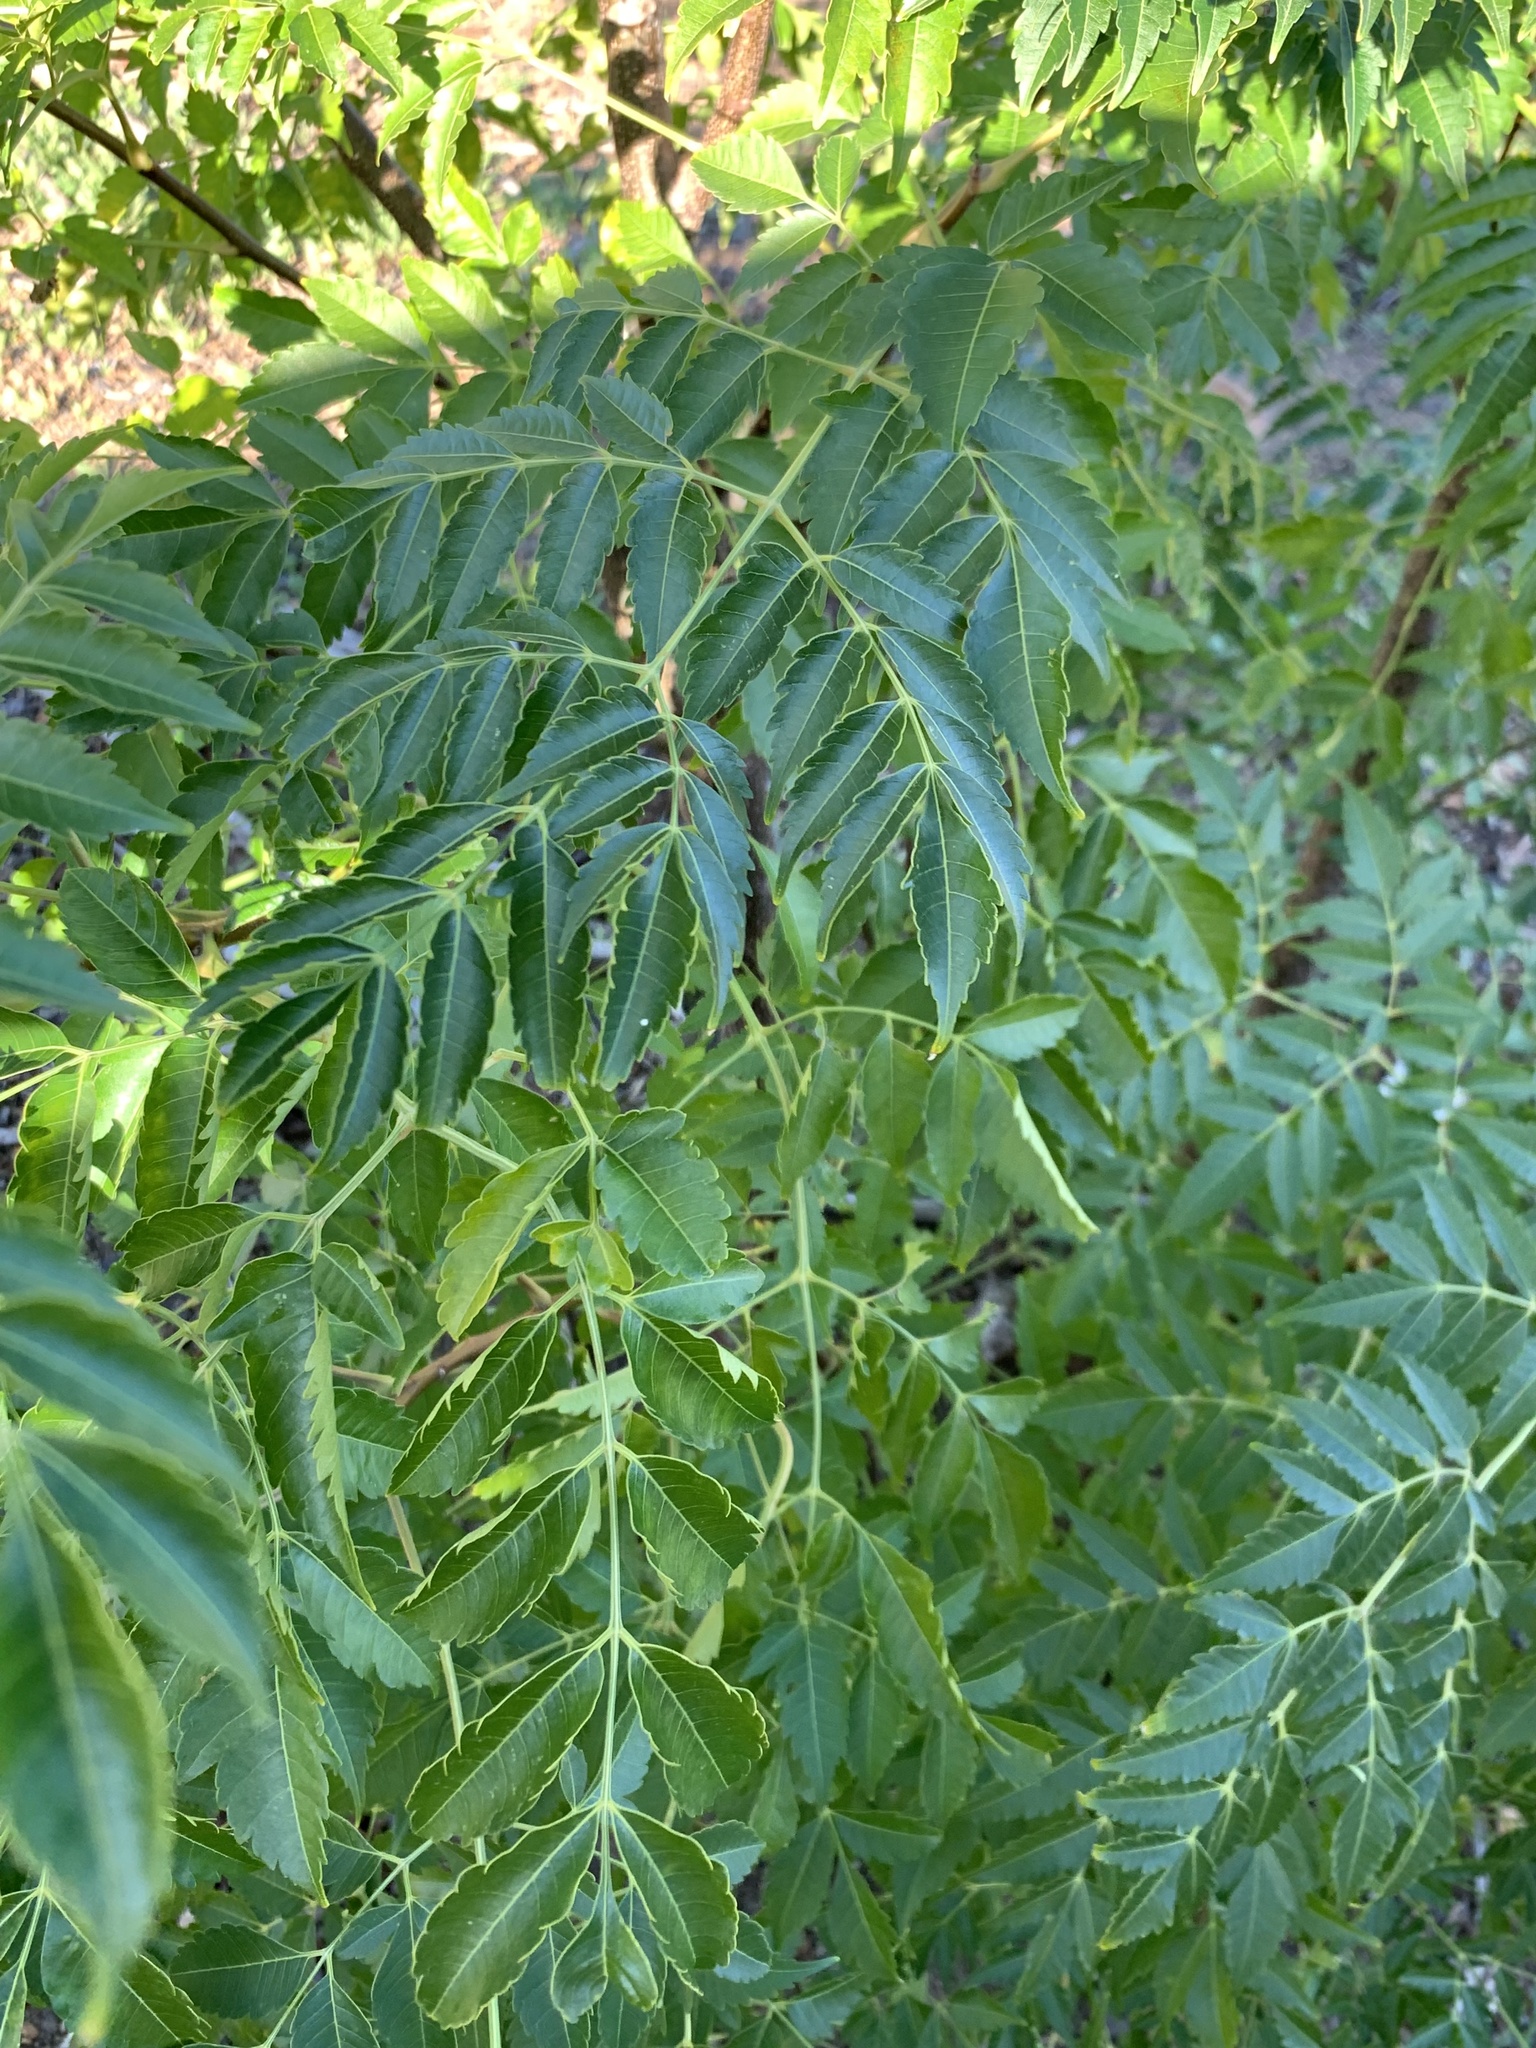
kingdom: Plantae
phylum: Tracheophyta
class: Magnoliopsida
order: Sapindales
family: Meliaceae
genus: Melia
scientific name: Melia azedarach
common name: Chinaberrytree
